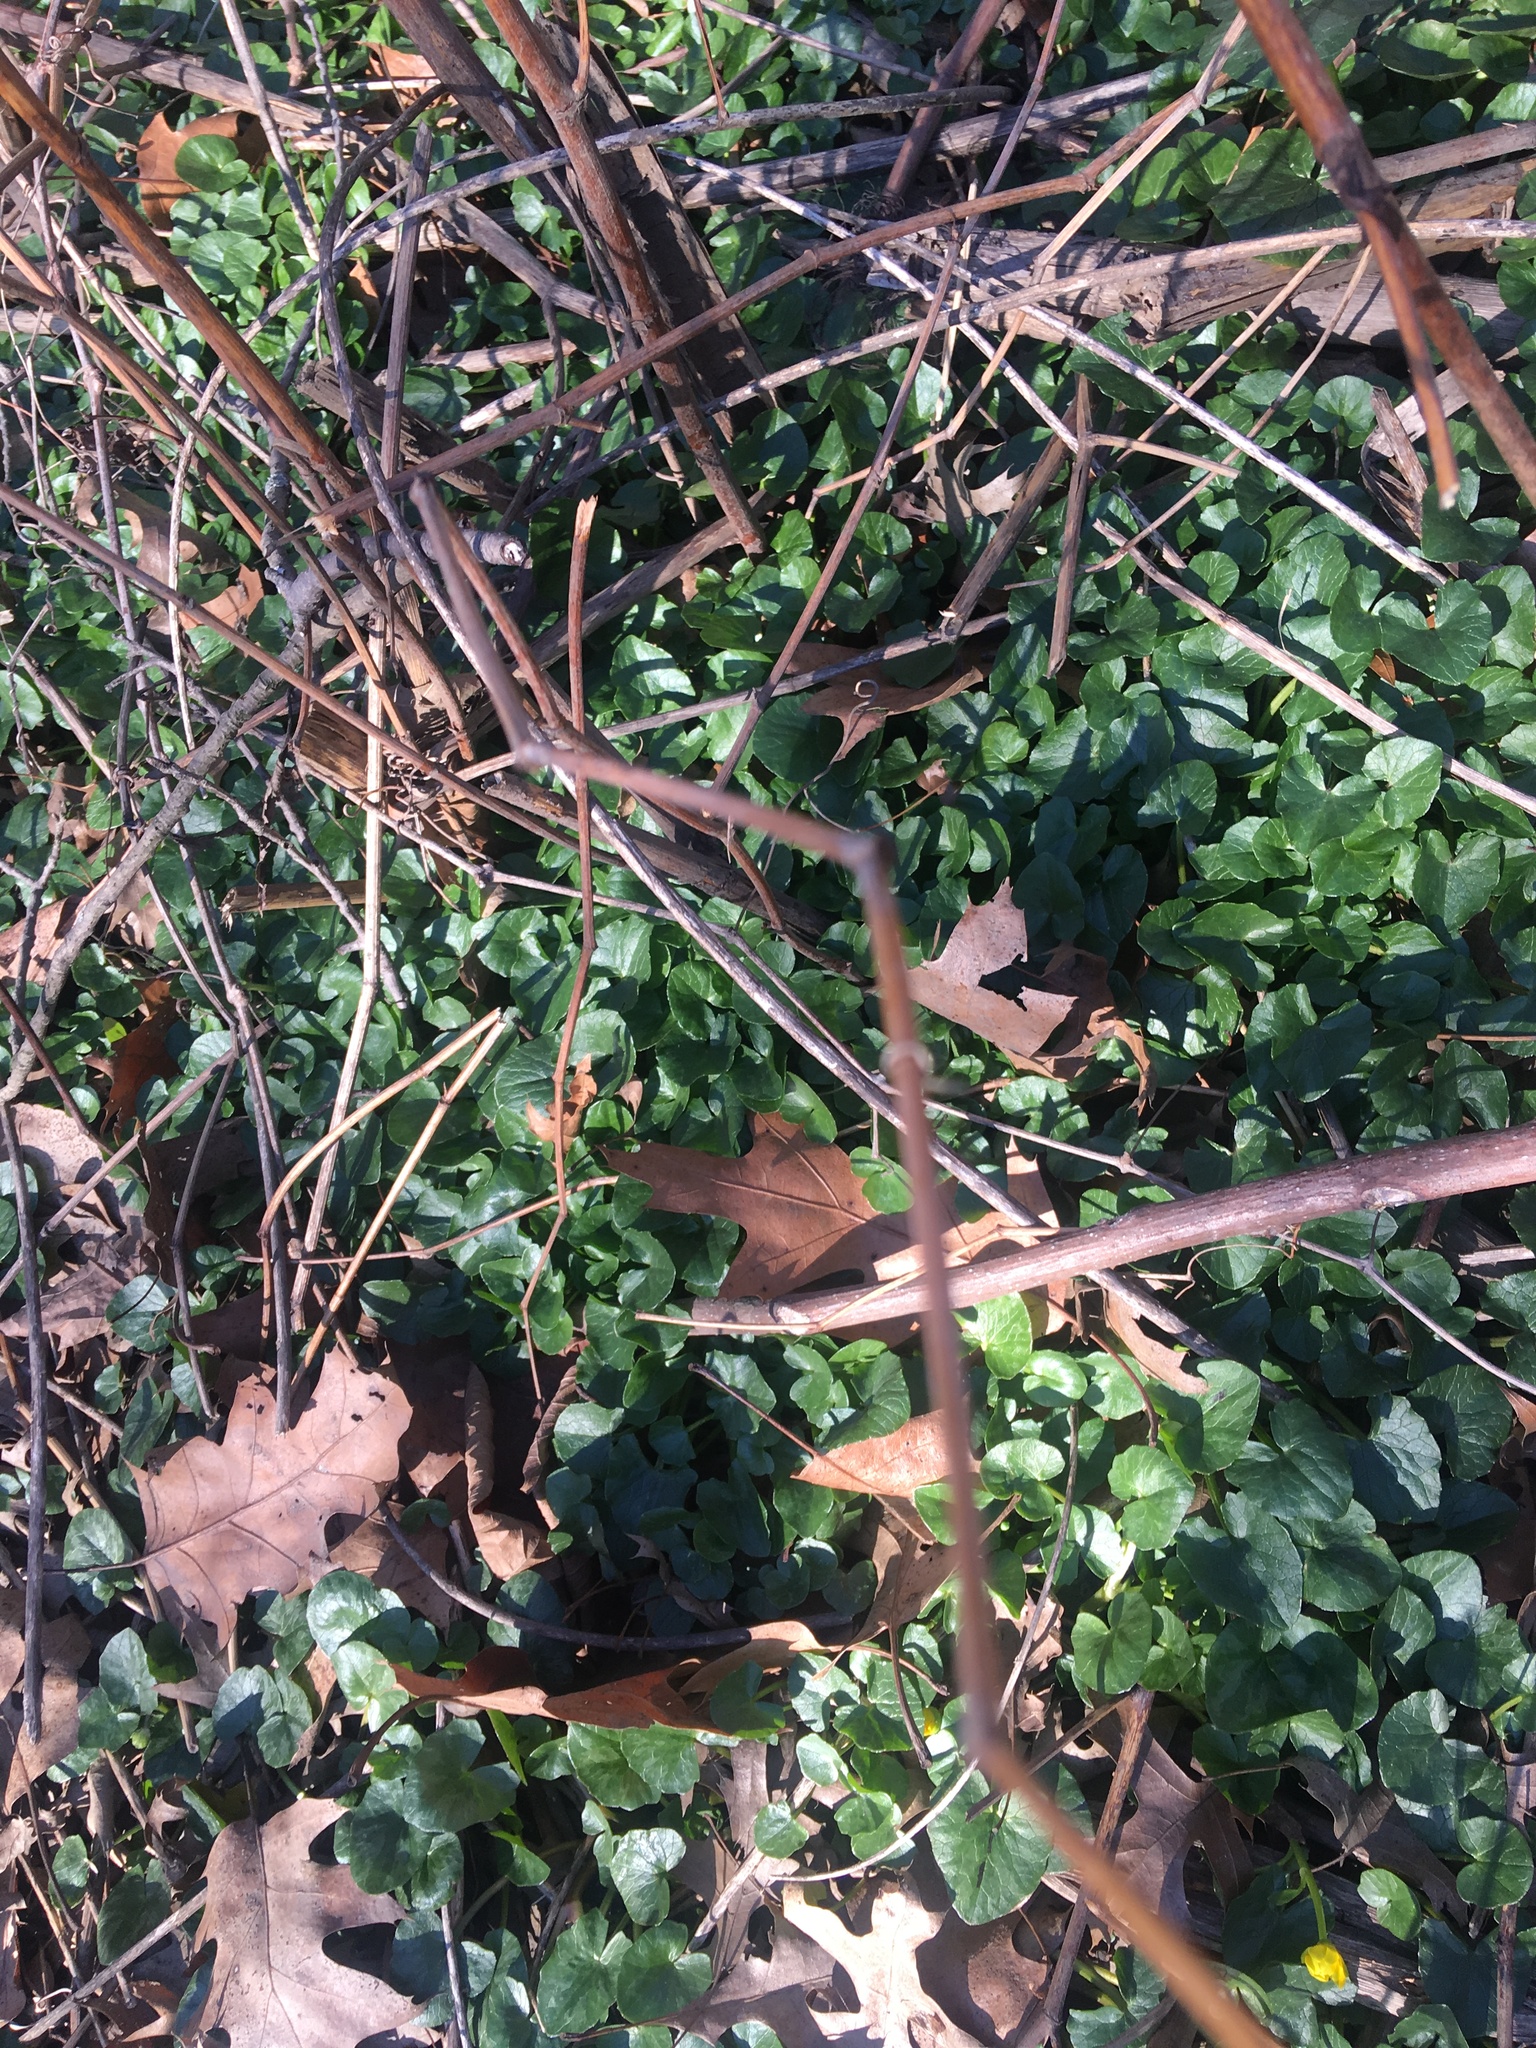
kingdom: Plantae
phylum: Tracheophyta
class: Magnoliopsida
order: Ranunculales
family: Ranunculaceae
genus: Ficaria
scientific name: Ficaria verna
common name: Lesser celandine
